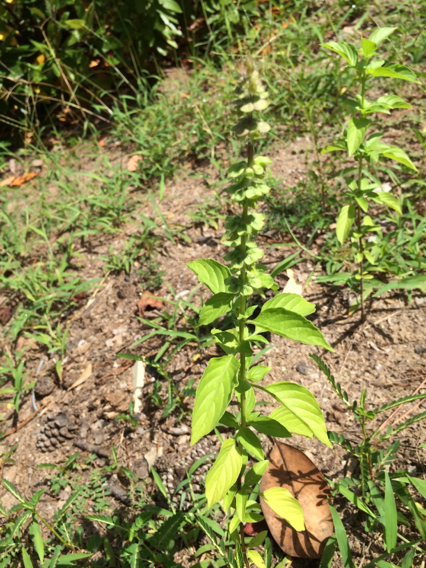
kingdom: Plantae
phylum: Tracheophyta
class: Magnoliopsida
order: Lamiales
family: Lamiaceae
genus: Ocimum
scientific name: Ocimum
